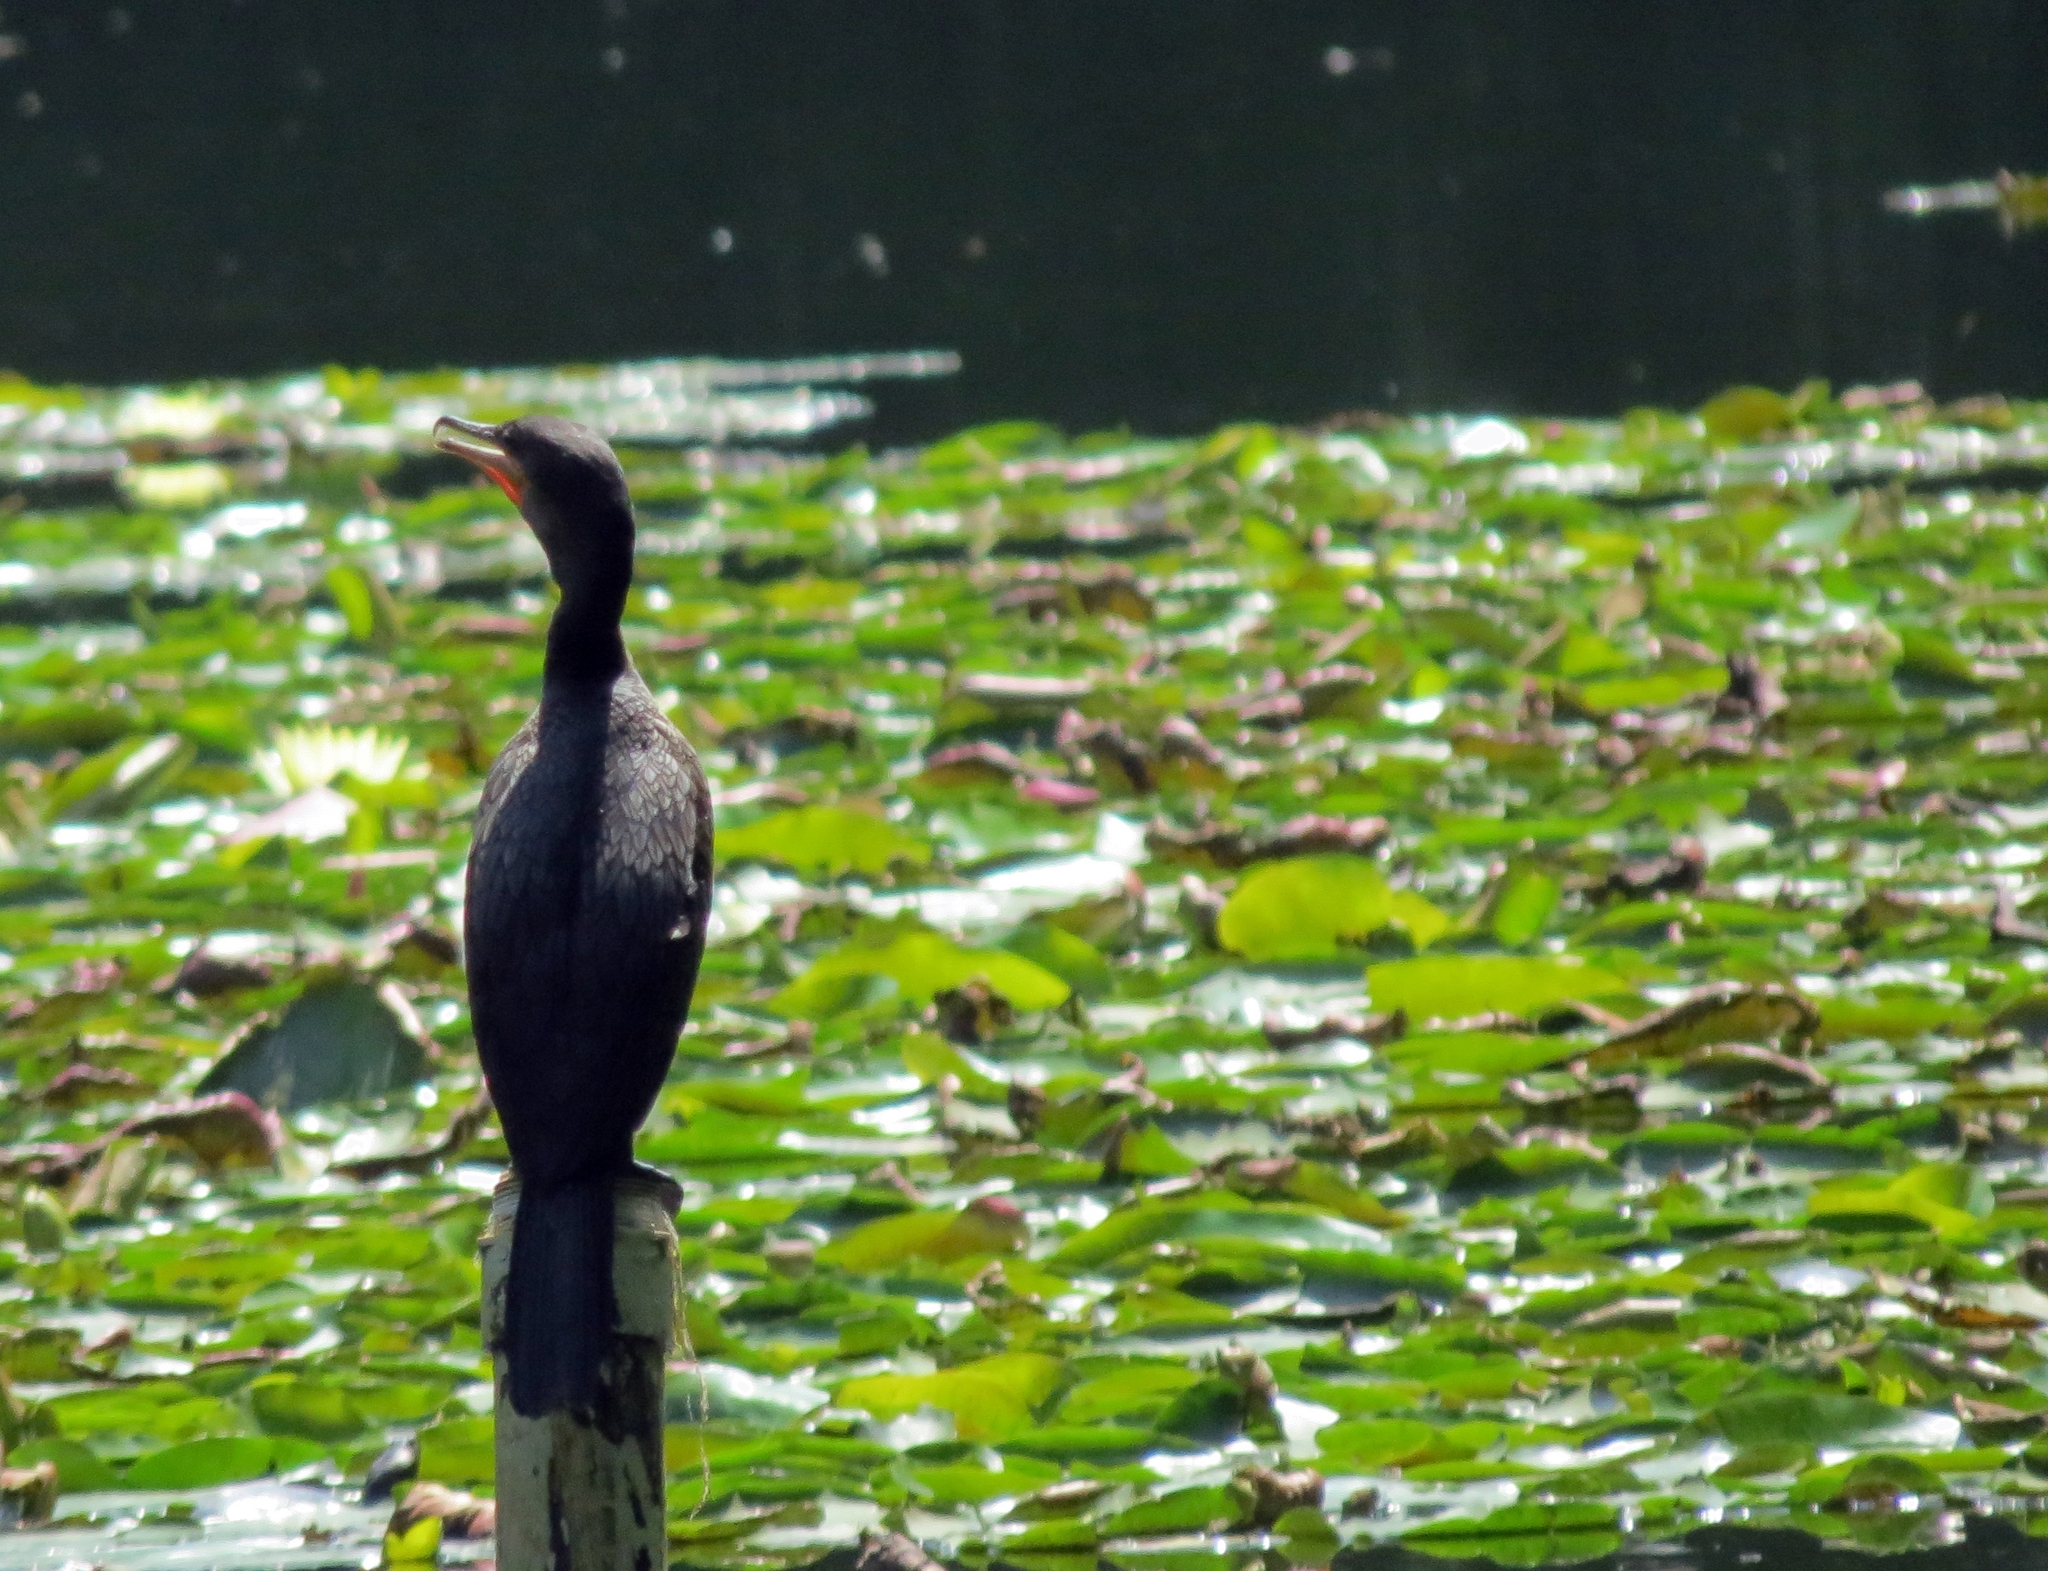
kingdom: Animalia
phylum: Chordata
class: Aves
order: Suliformes
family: Phalacrocoracidae
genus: Phalacrocorax
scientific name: Phalacrocorax brasilianus
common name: Neotropic cormorant
